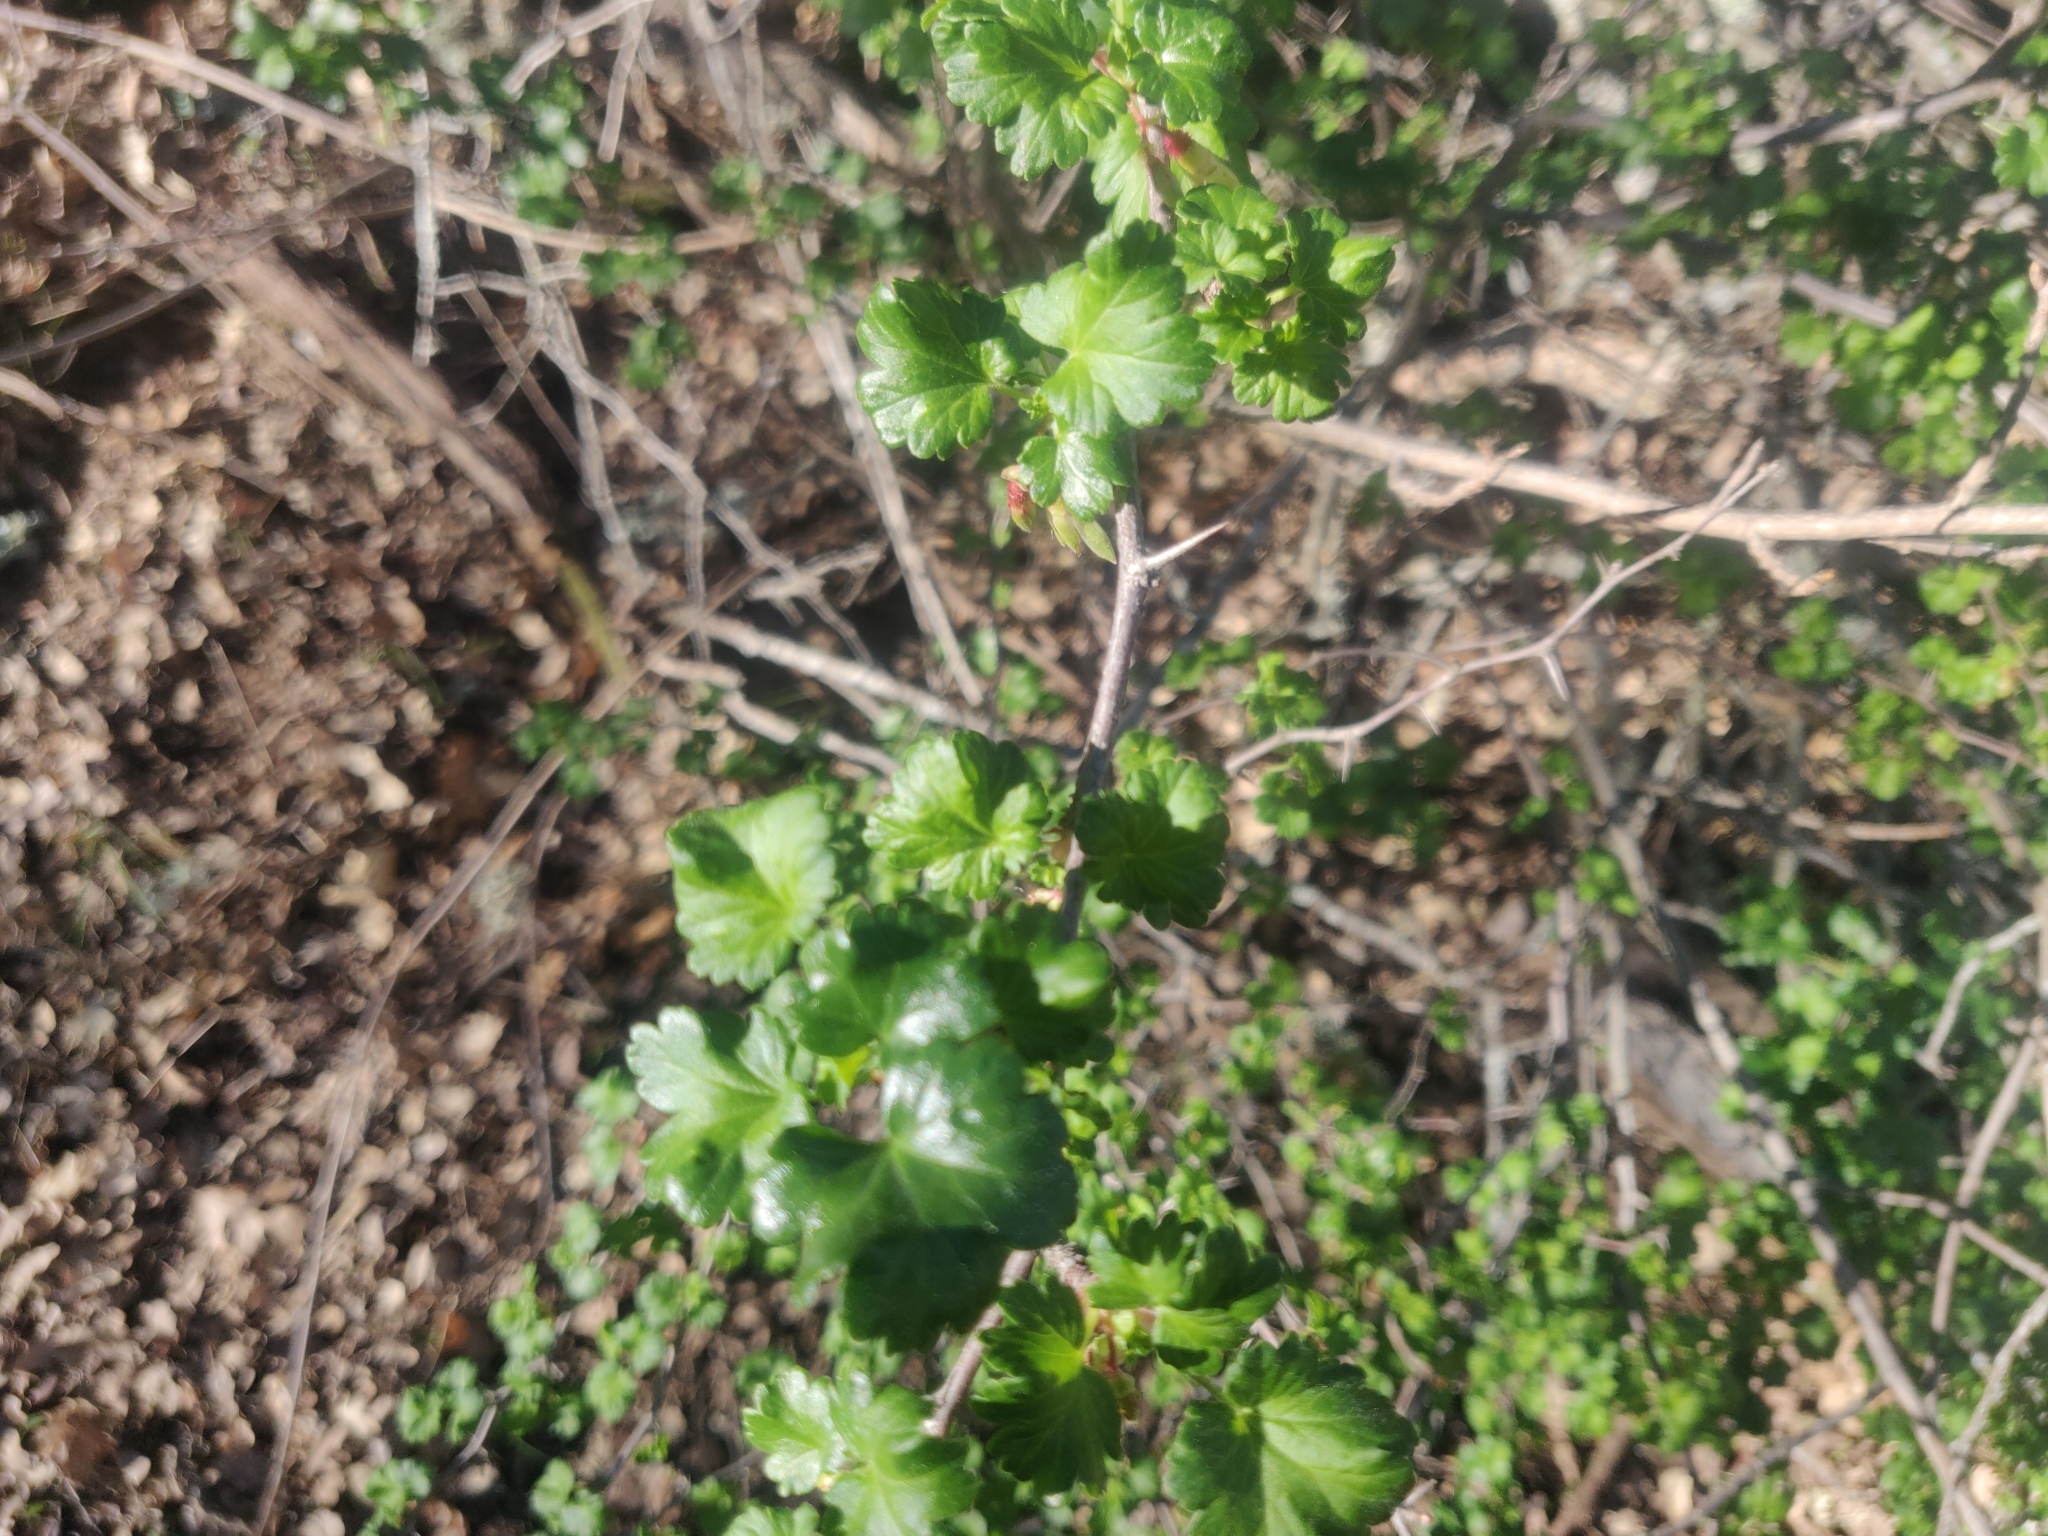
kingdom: Plantae
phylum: Tracheophyta
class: Magnoliopsida
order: Saxifragales
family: Grossulariaceae
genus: Ribes
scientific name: Ribes californicum
